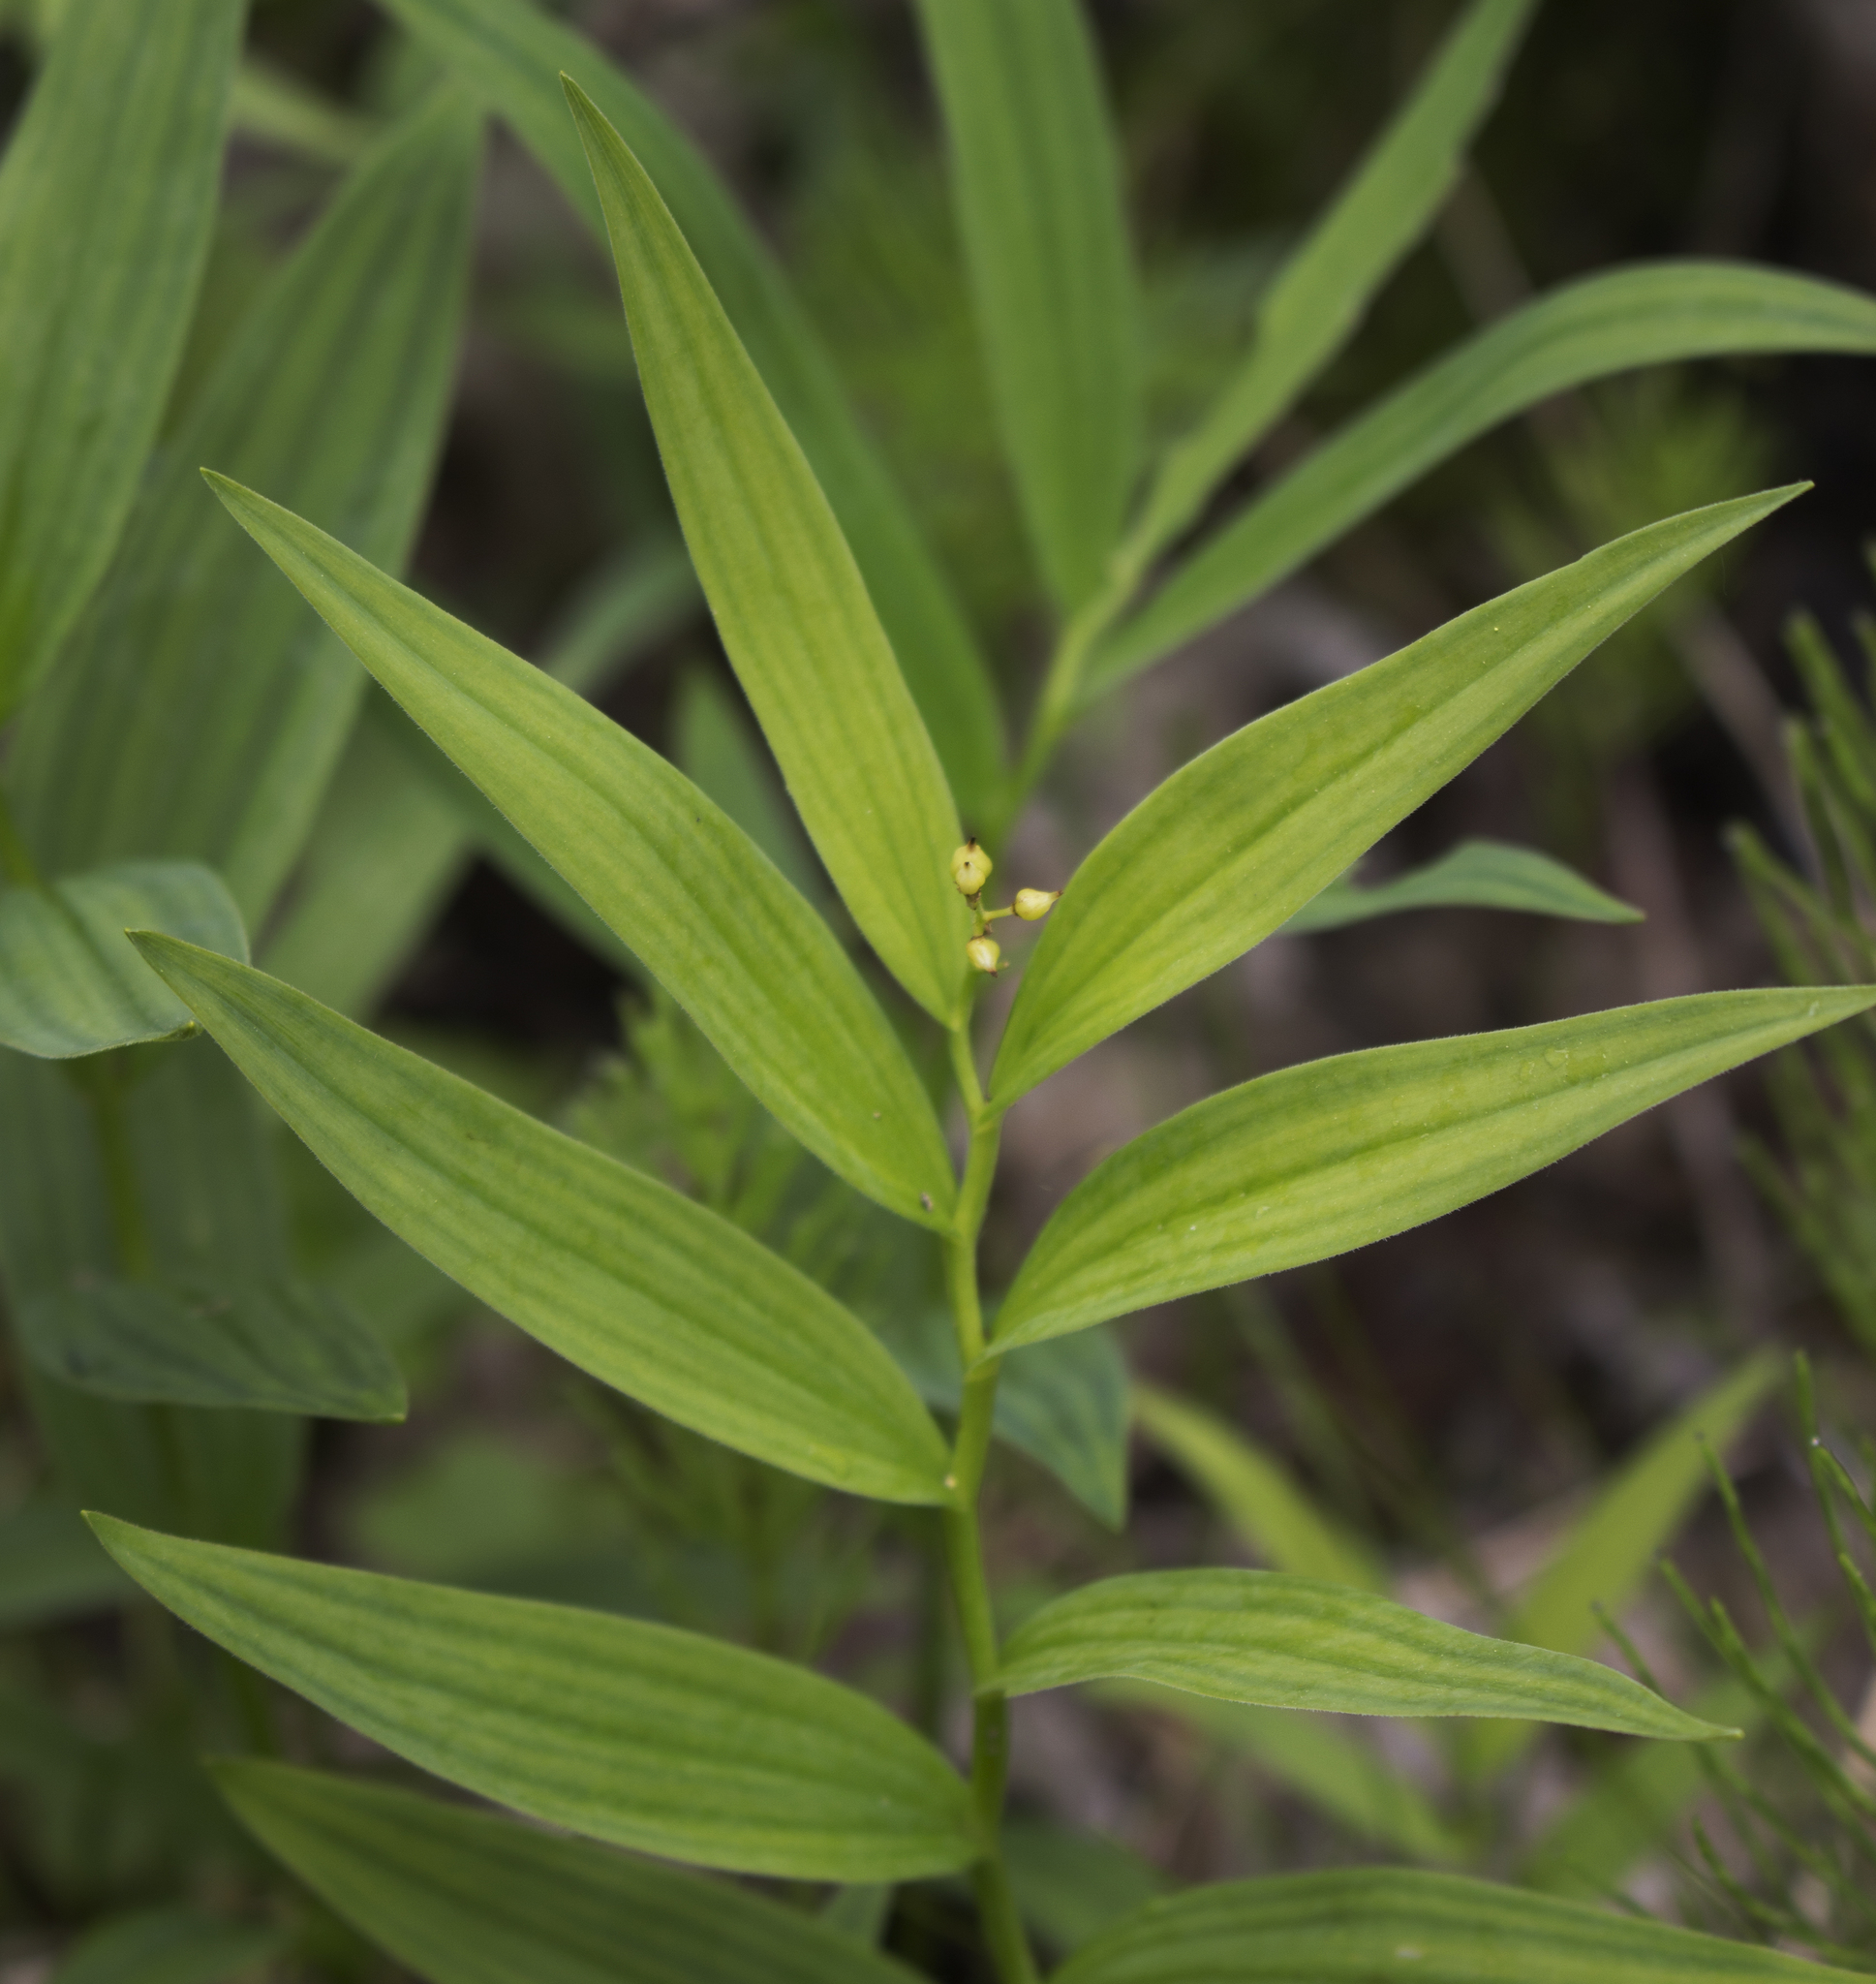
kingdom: Plantae
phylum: Tracheophyta
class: Liliopsida
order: Asparagales
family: Asparagaceae
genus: Maianthemum
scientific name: Maianthemum stellatum
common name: Little false solomon's seal
